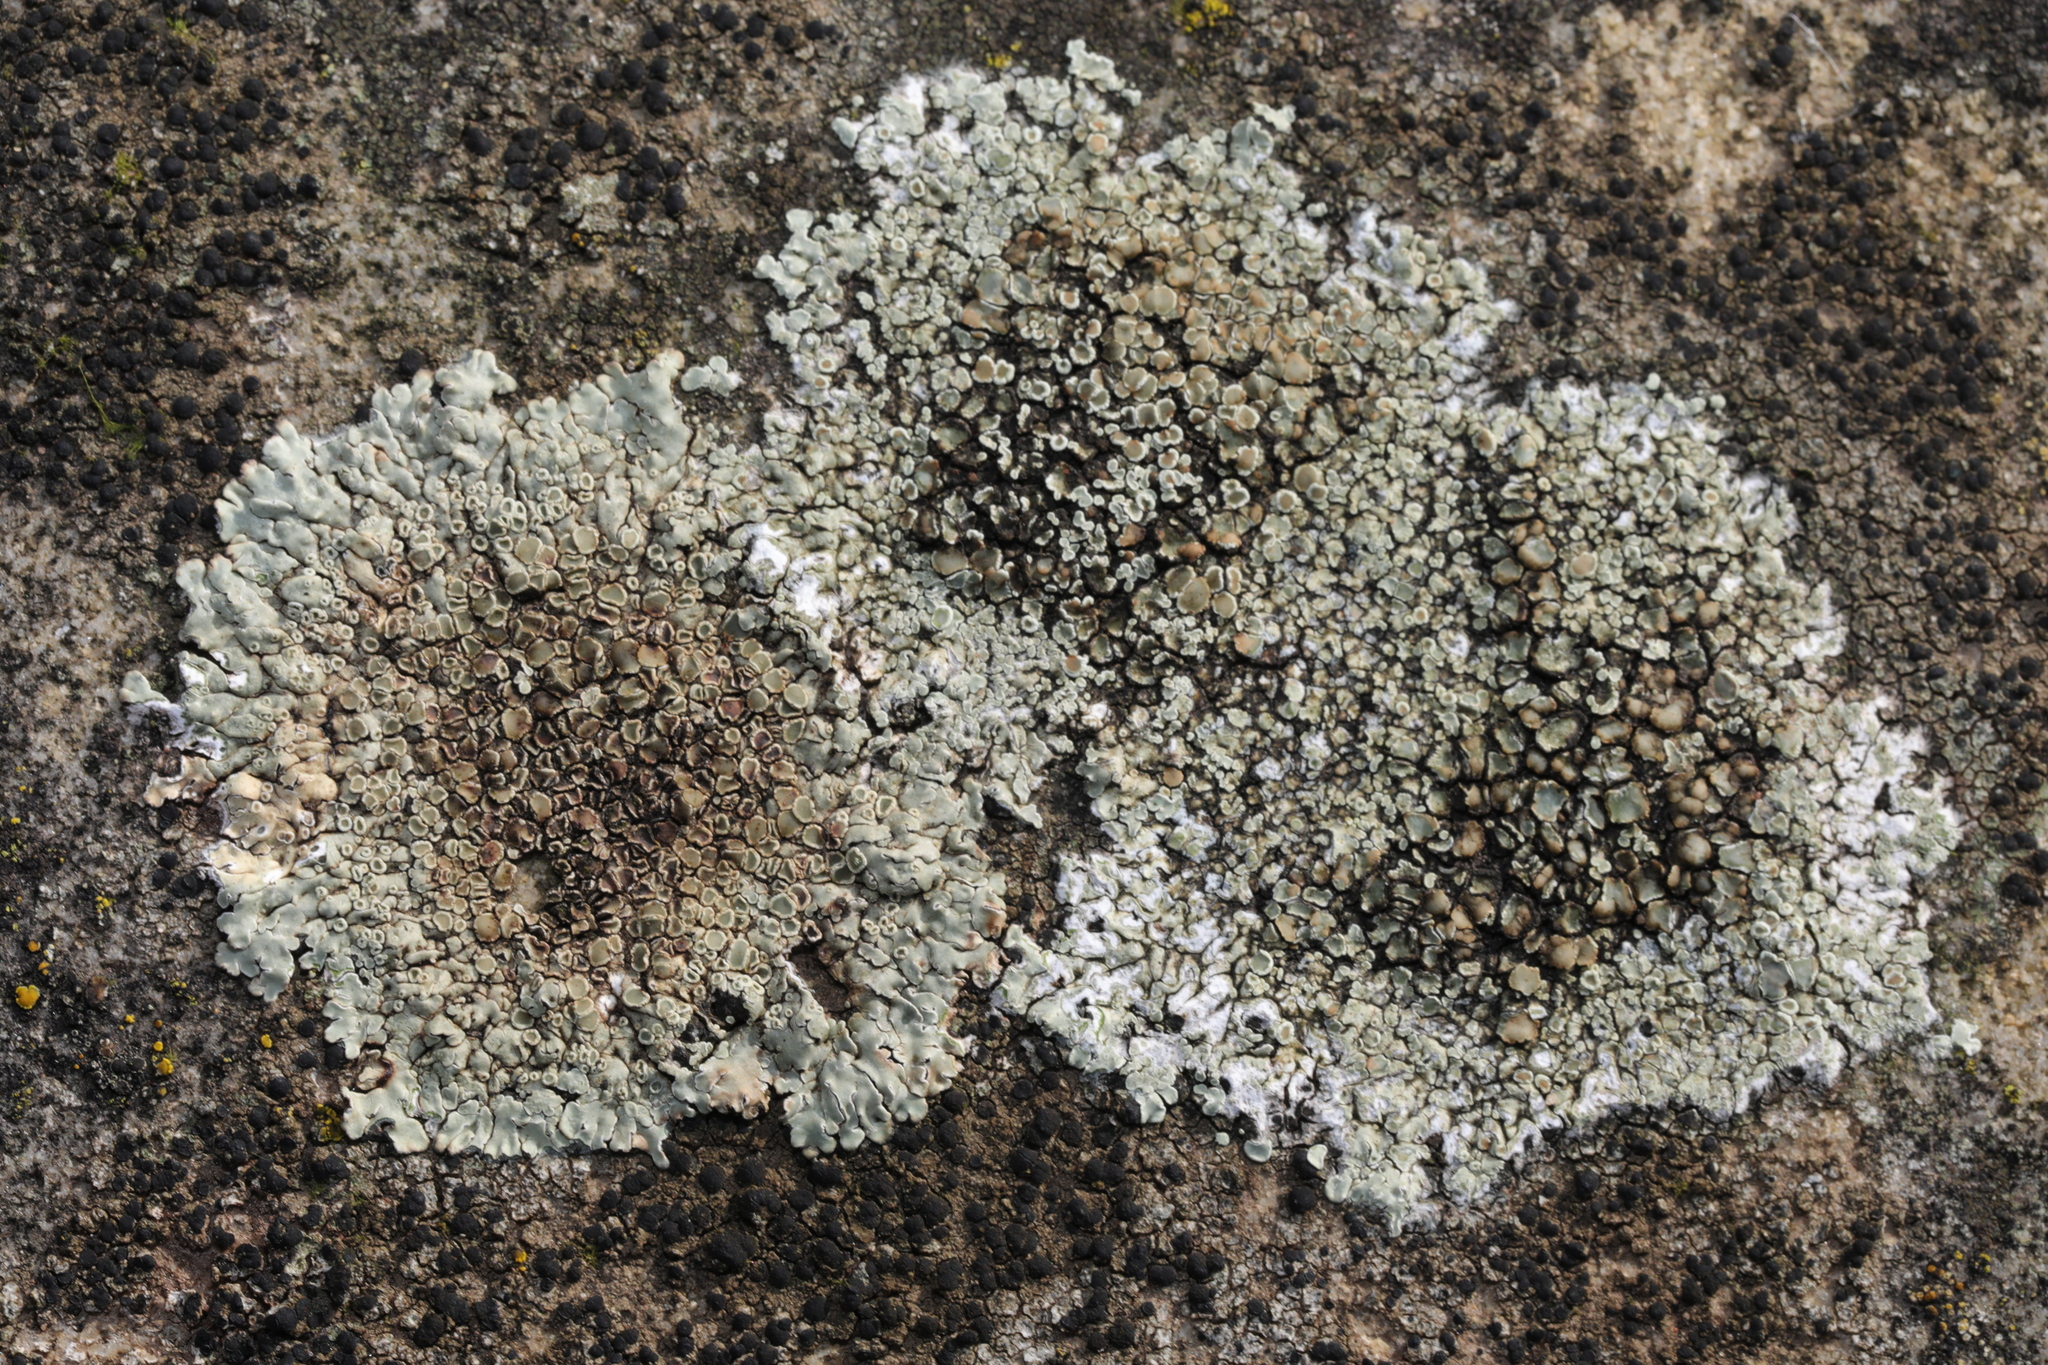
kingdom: Fungi
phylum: Ascomycota
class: Lecanoromycetes
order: Lecanorales
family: Lecanoraceae
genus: Protoparmeliopsis
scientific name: Protoparmeliopsis muralis
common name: Stonewall rim lichen
